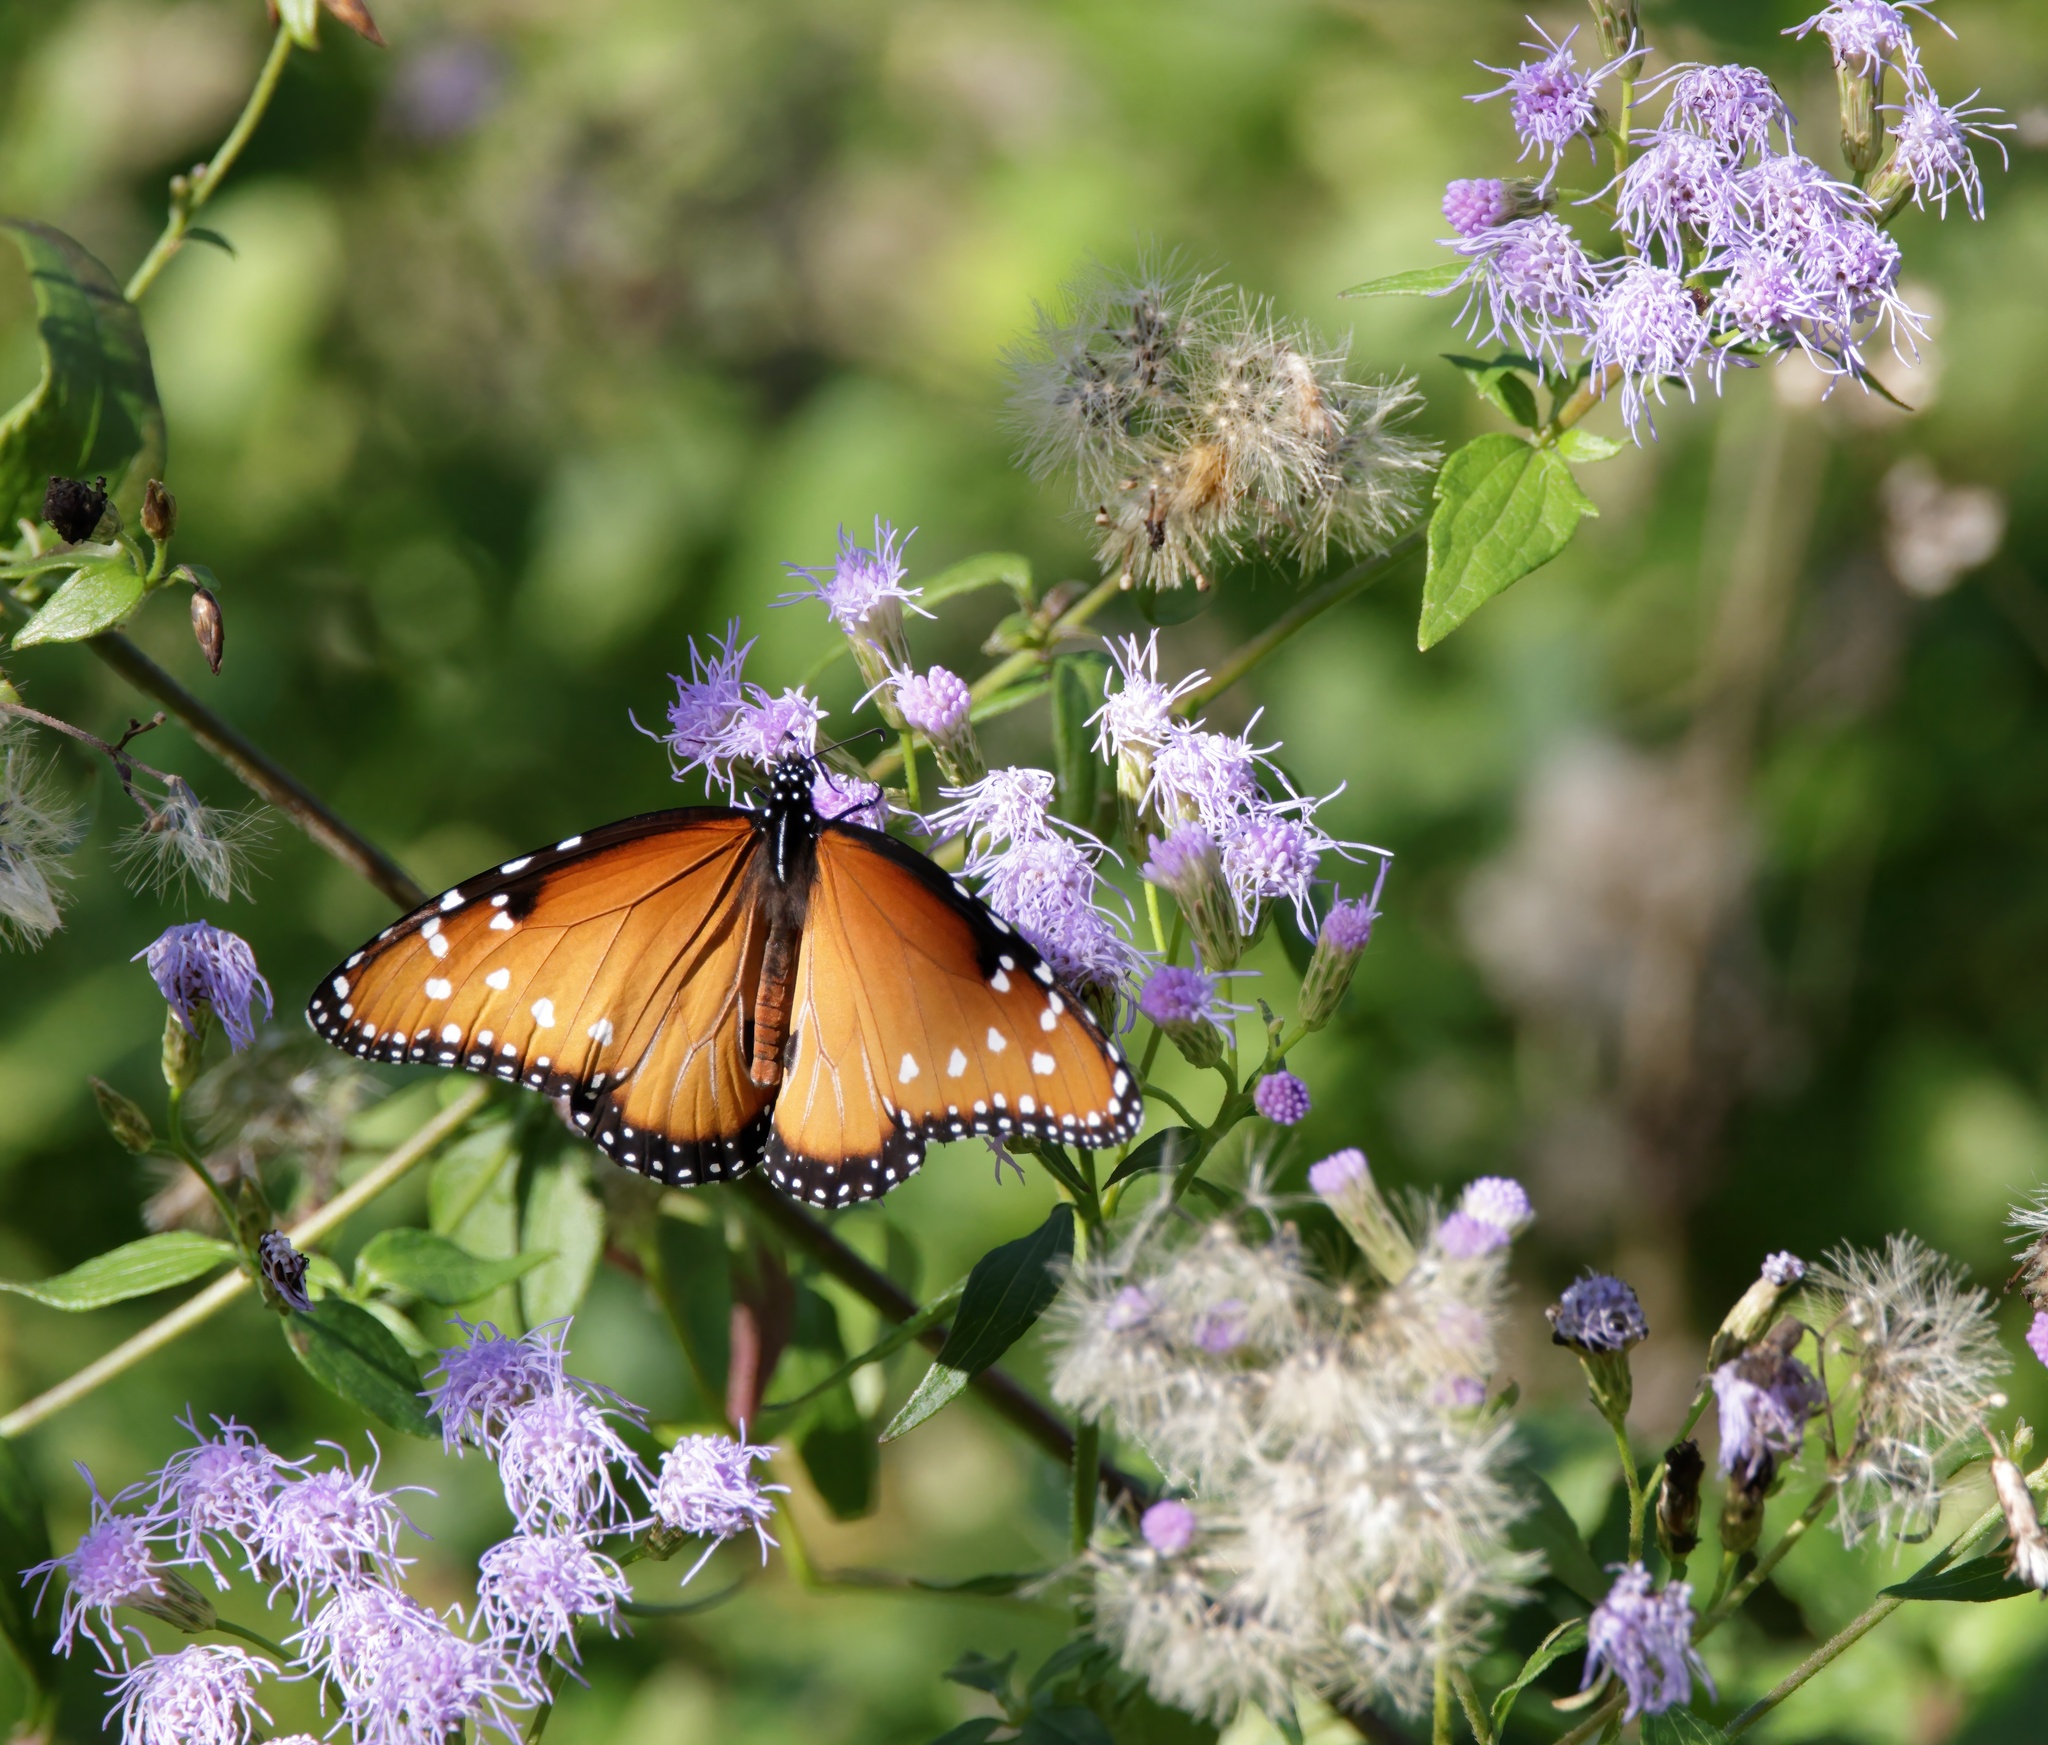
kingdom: Animalia
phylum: Arthropoda
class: Insecta
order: Lepidoptera
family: Nymphalidae
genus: Danaus
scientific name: Danaus gilippus
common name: Queen
